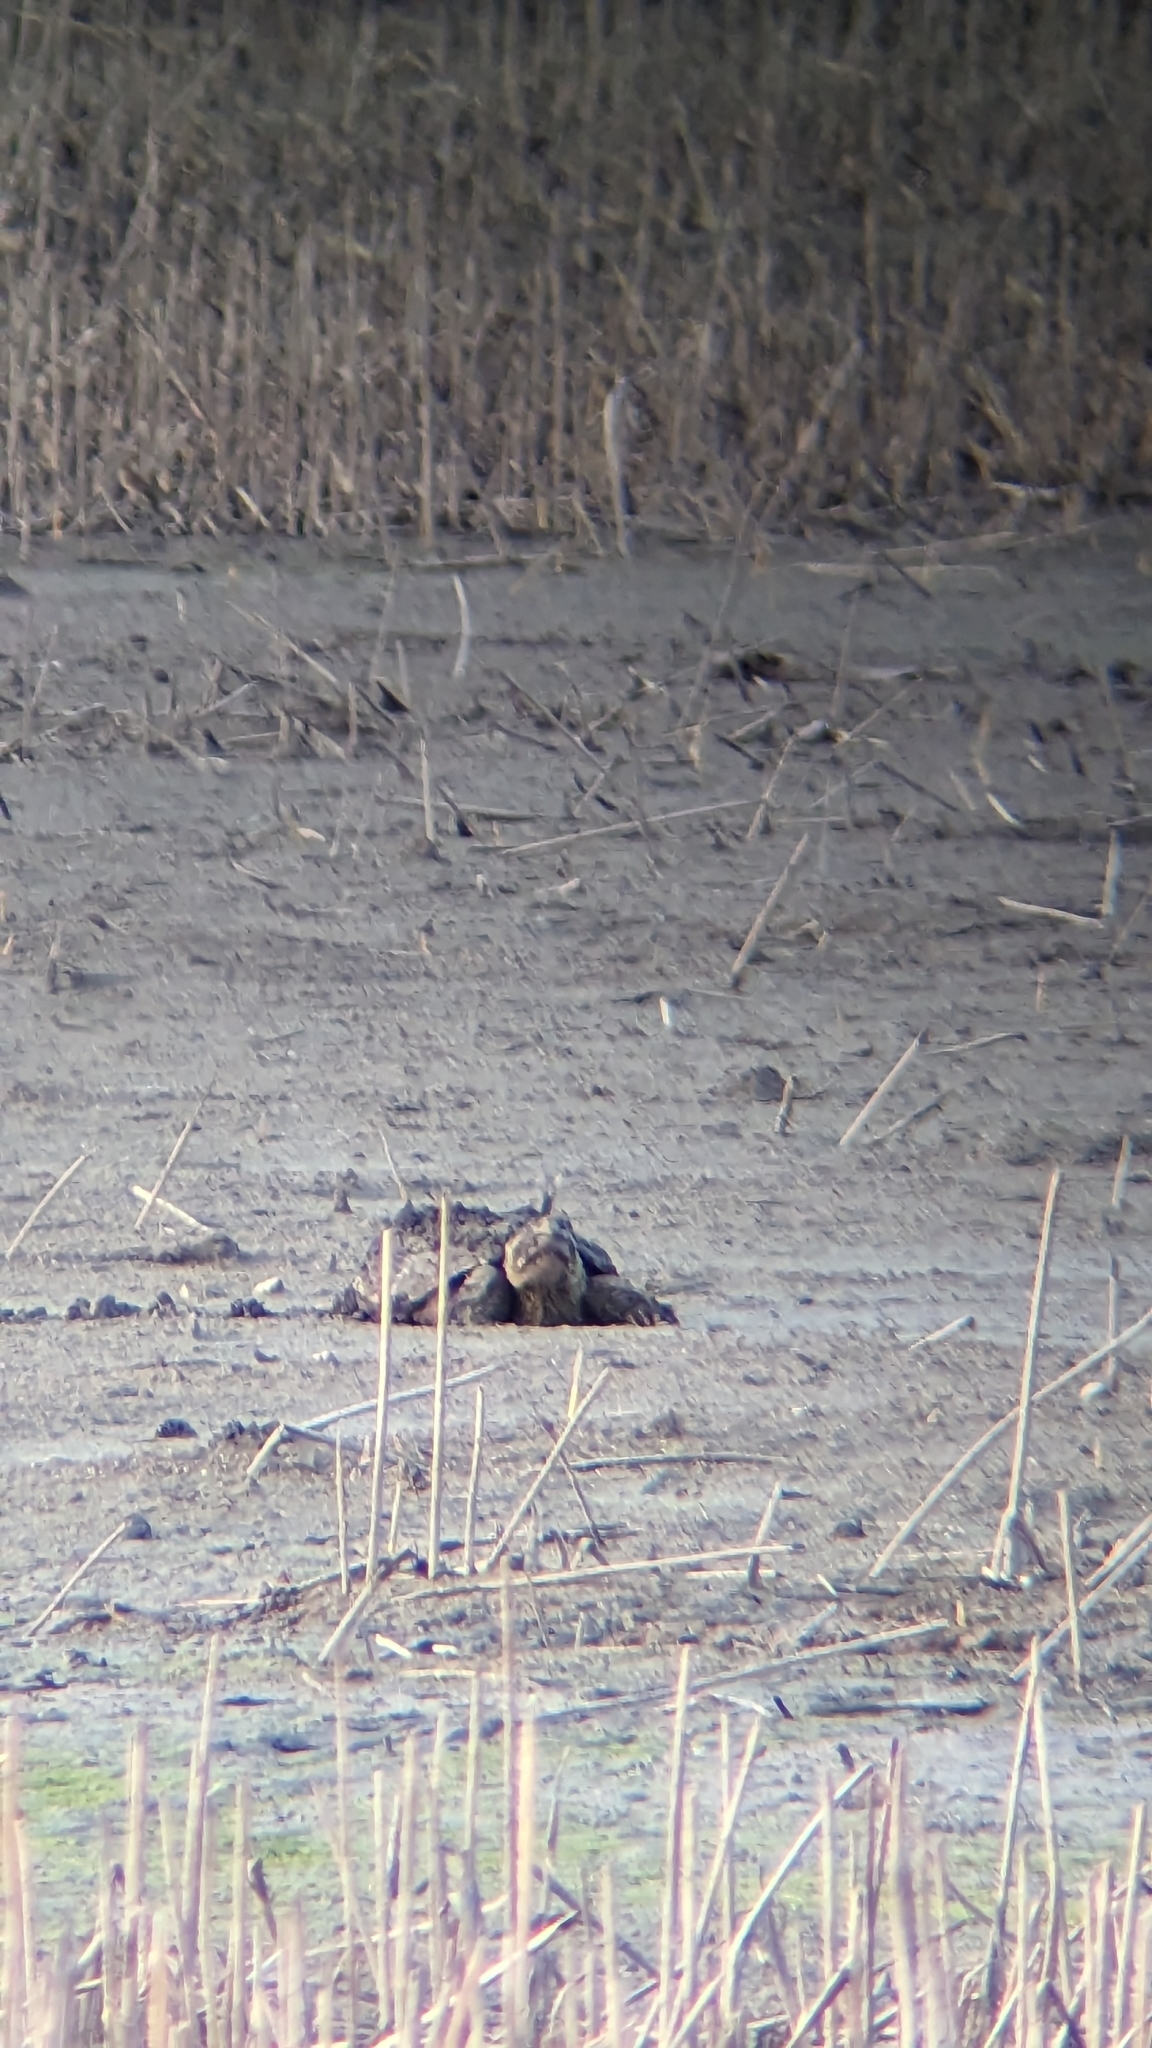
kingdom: Animalia
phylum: Chordata
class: Testudines
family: Chelydridae
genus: Chelydra
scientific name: Chelydra serpentina
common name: Common snapping turtle
